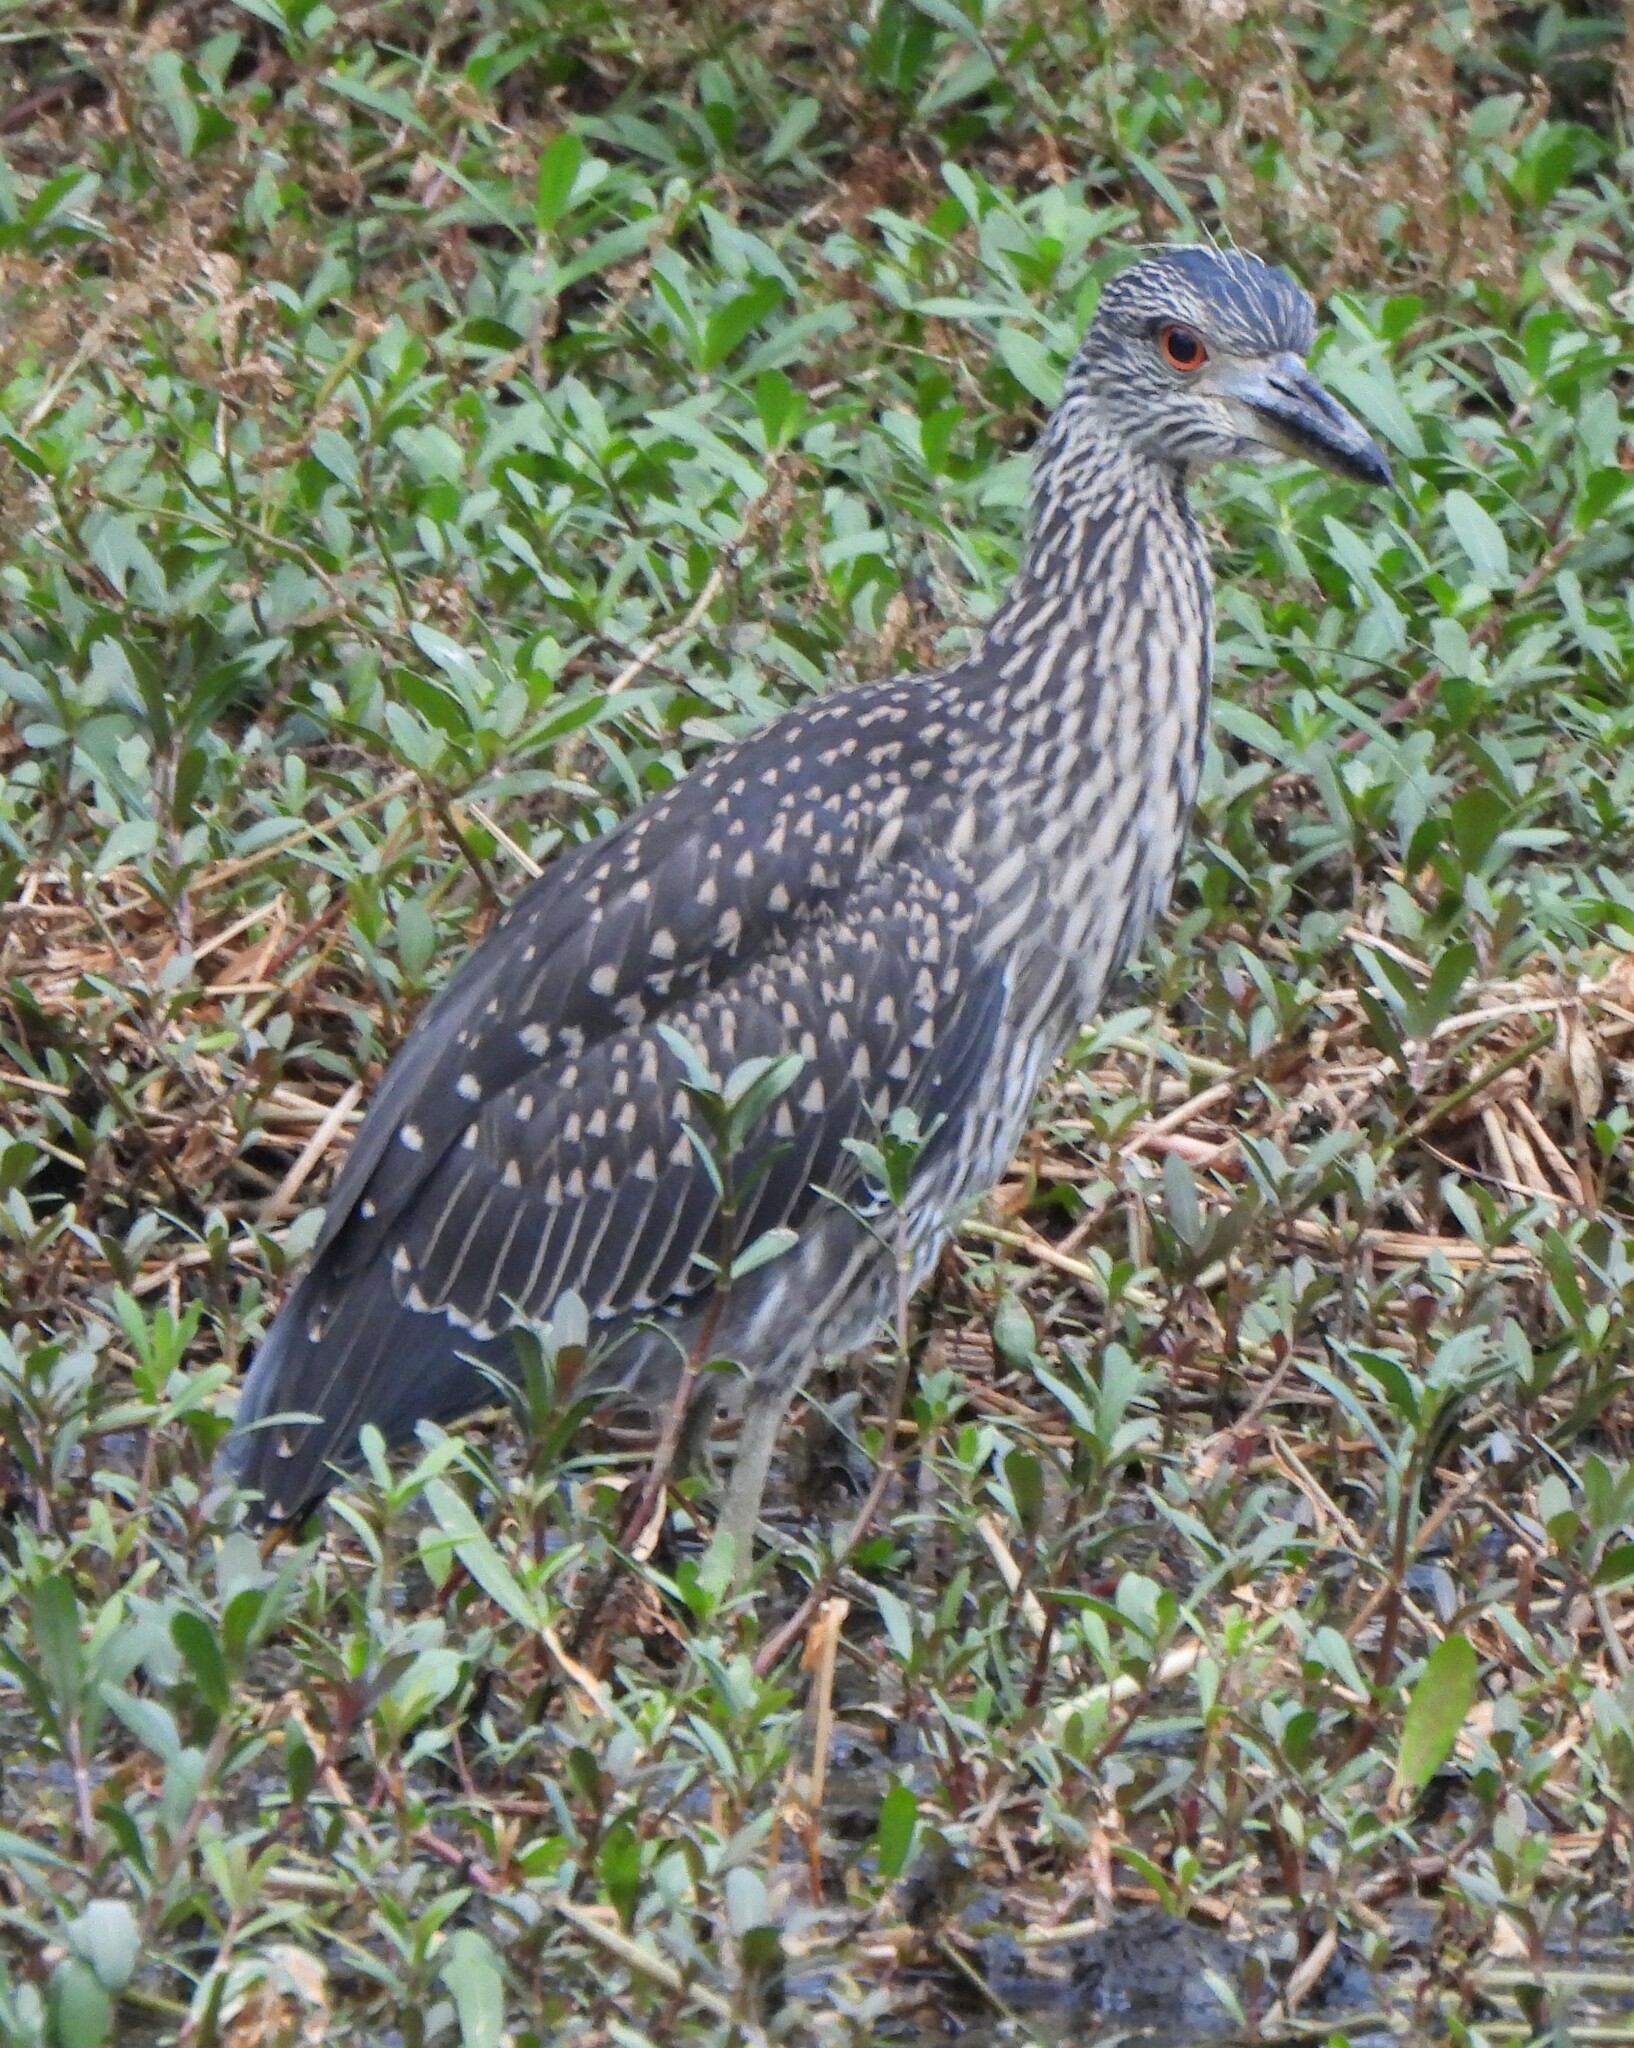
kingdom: Animalia
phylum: Chordata
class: Aves
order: Pelecaniformes
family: Ardeidae
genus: Nyctanassa
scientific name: Nyctanassa violacea
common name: Yellow-crowned night heron
